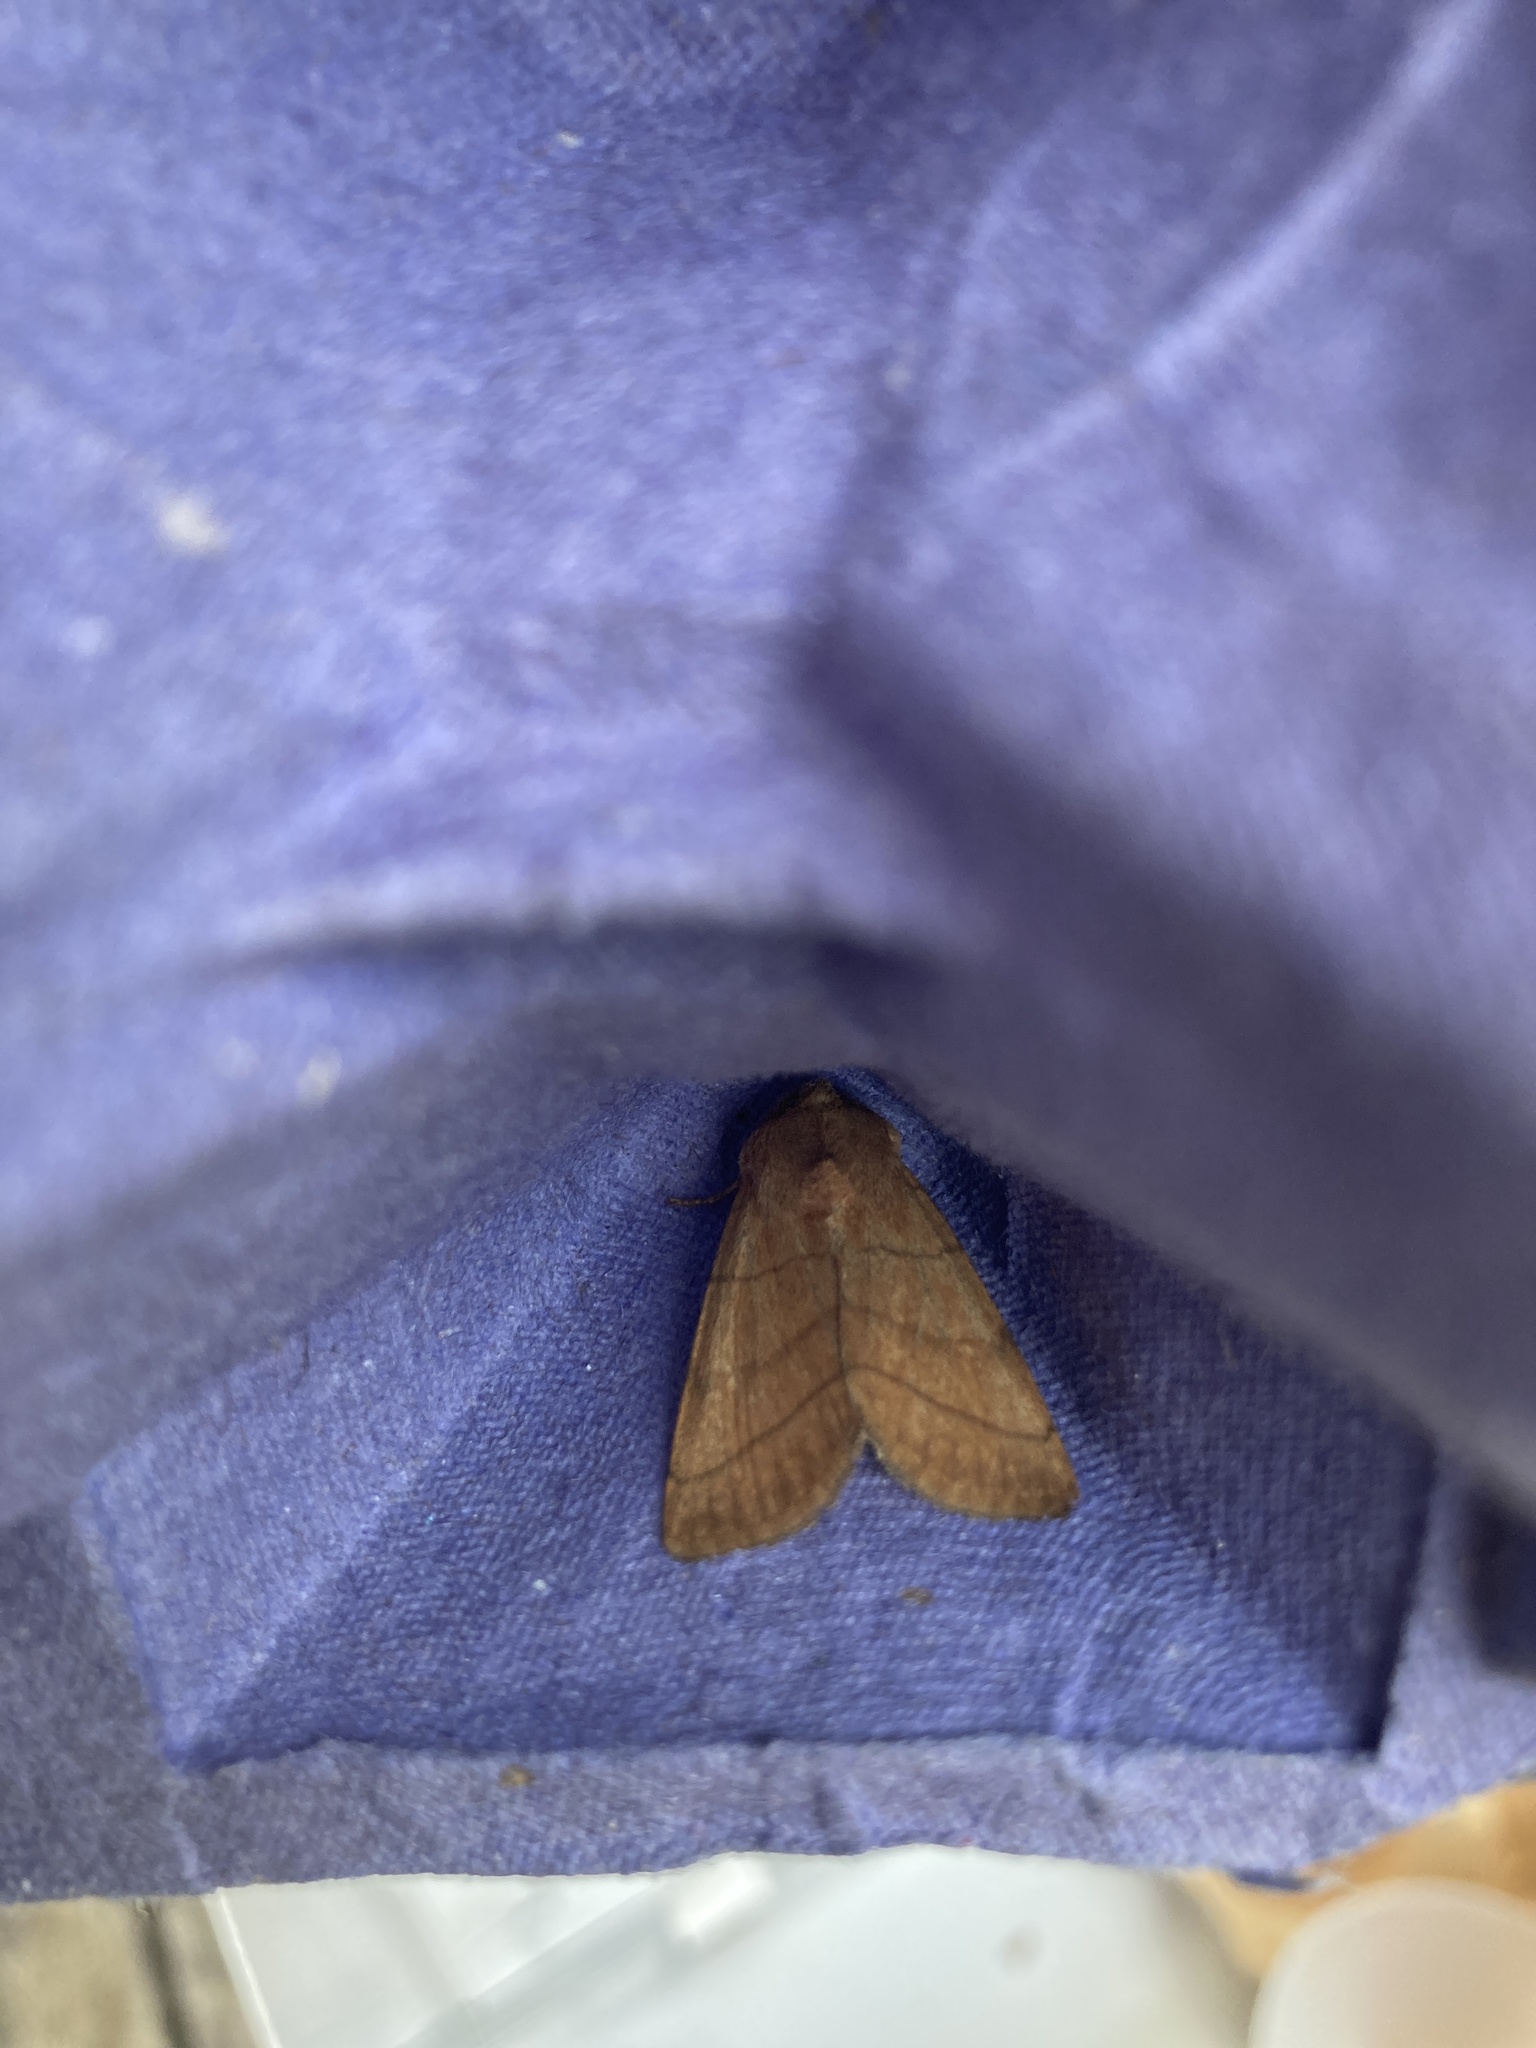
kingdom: Animalia
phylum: Arthropoda
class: Insecta
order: Lepidoptera
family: Noctuidae
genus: Charanyca
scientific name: Charanyca trigrammica
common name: Treble lines
